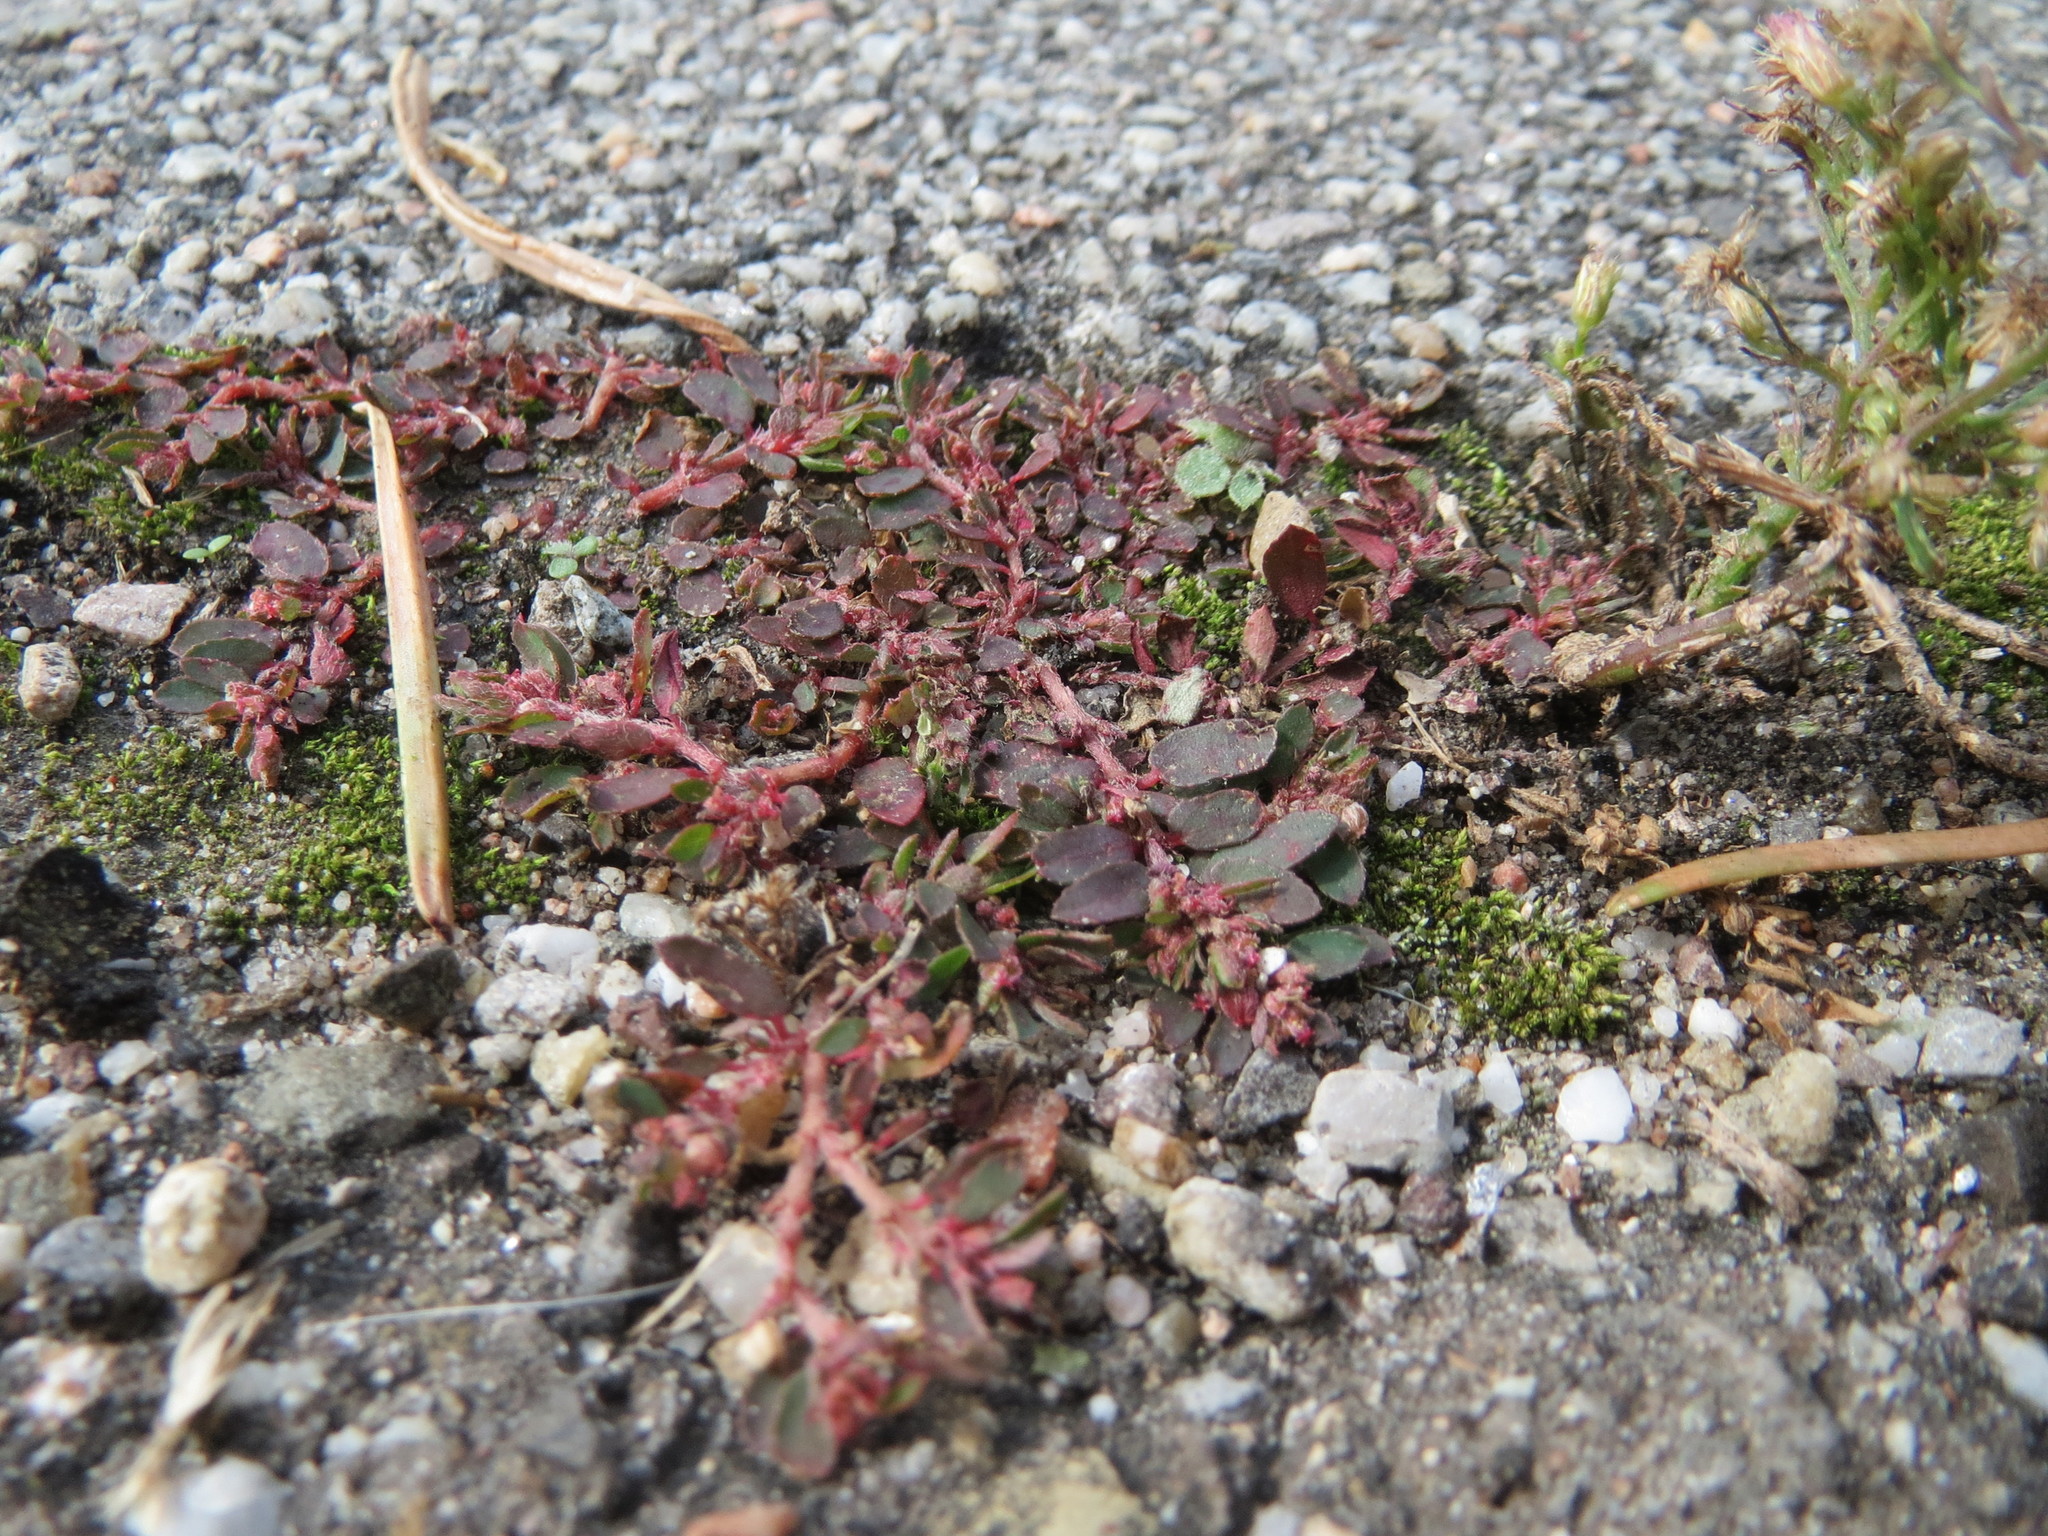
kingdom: Plantae
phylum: Tracheophyta
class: Magnoliopsida
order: Malpighiales
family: Euphorbiaceae
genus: Euphorbia
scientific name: Euphorbia maculata
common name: Spotted spurge
